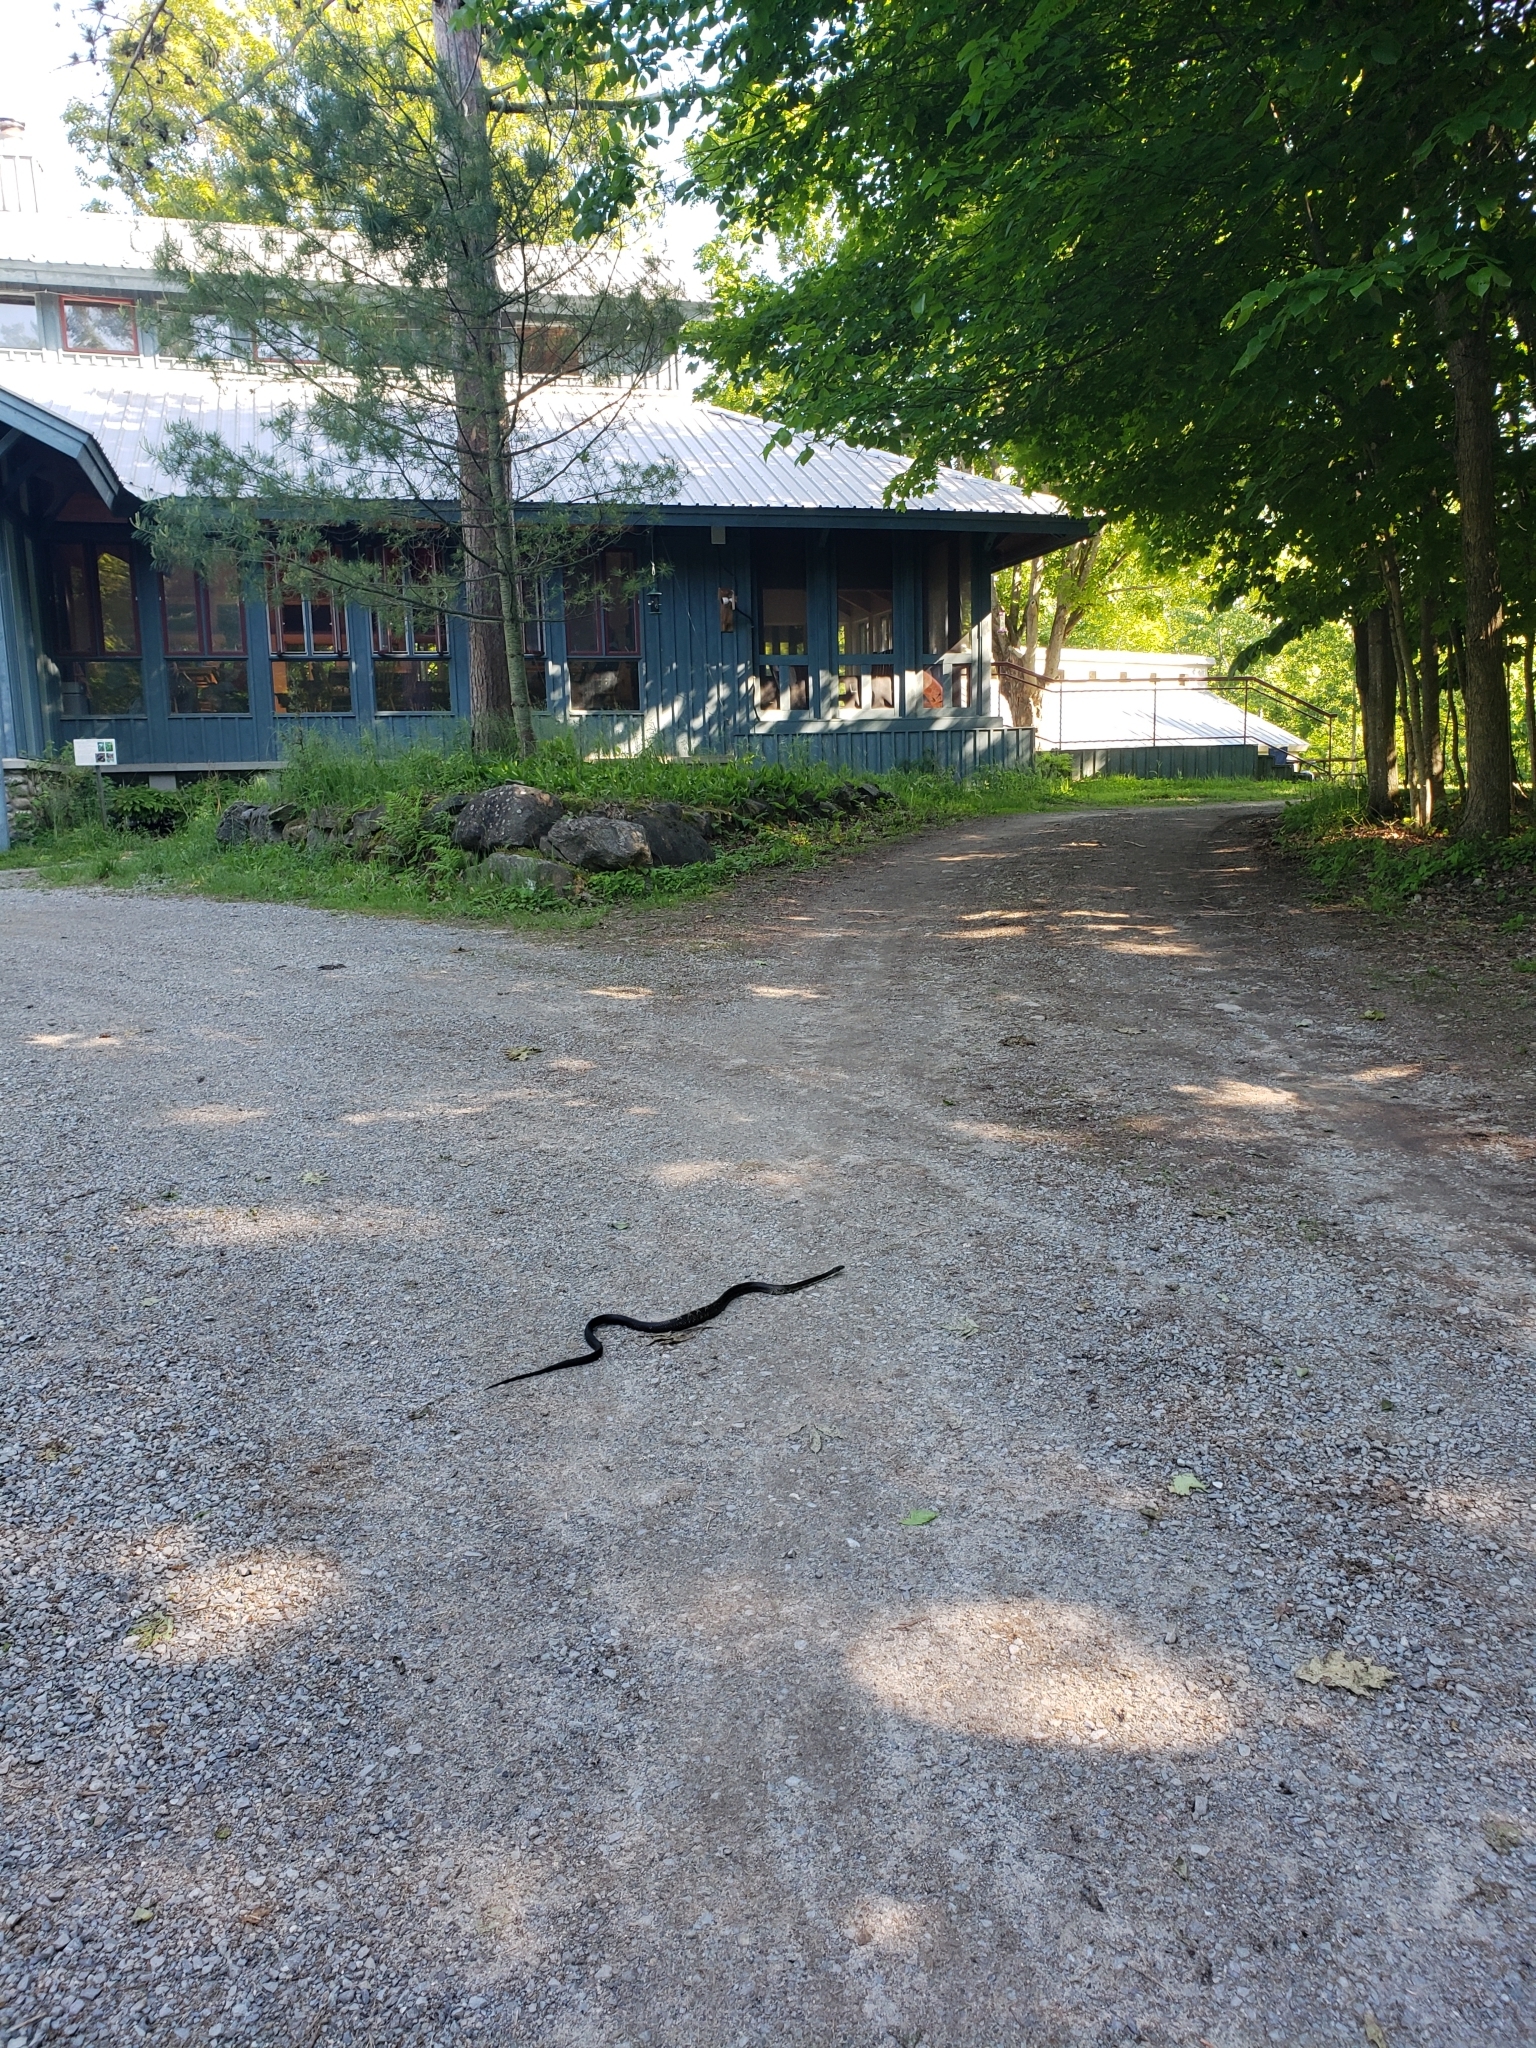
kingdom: Animalia
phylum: Chordata
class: Squamata
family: Colubridae
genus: Pantherophis
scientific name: Pantherophis spiloides
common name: Gray rat snake
